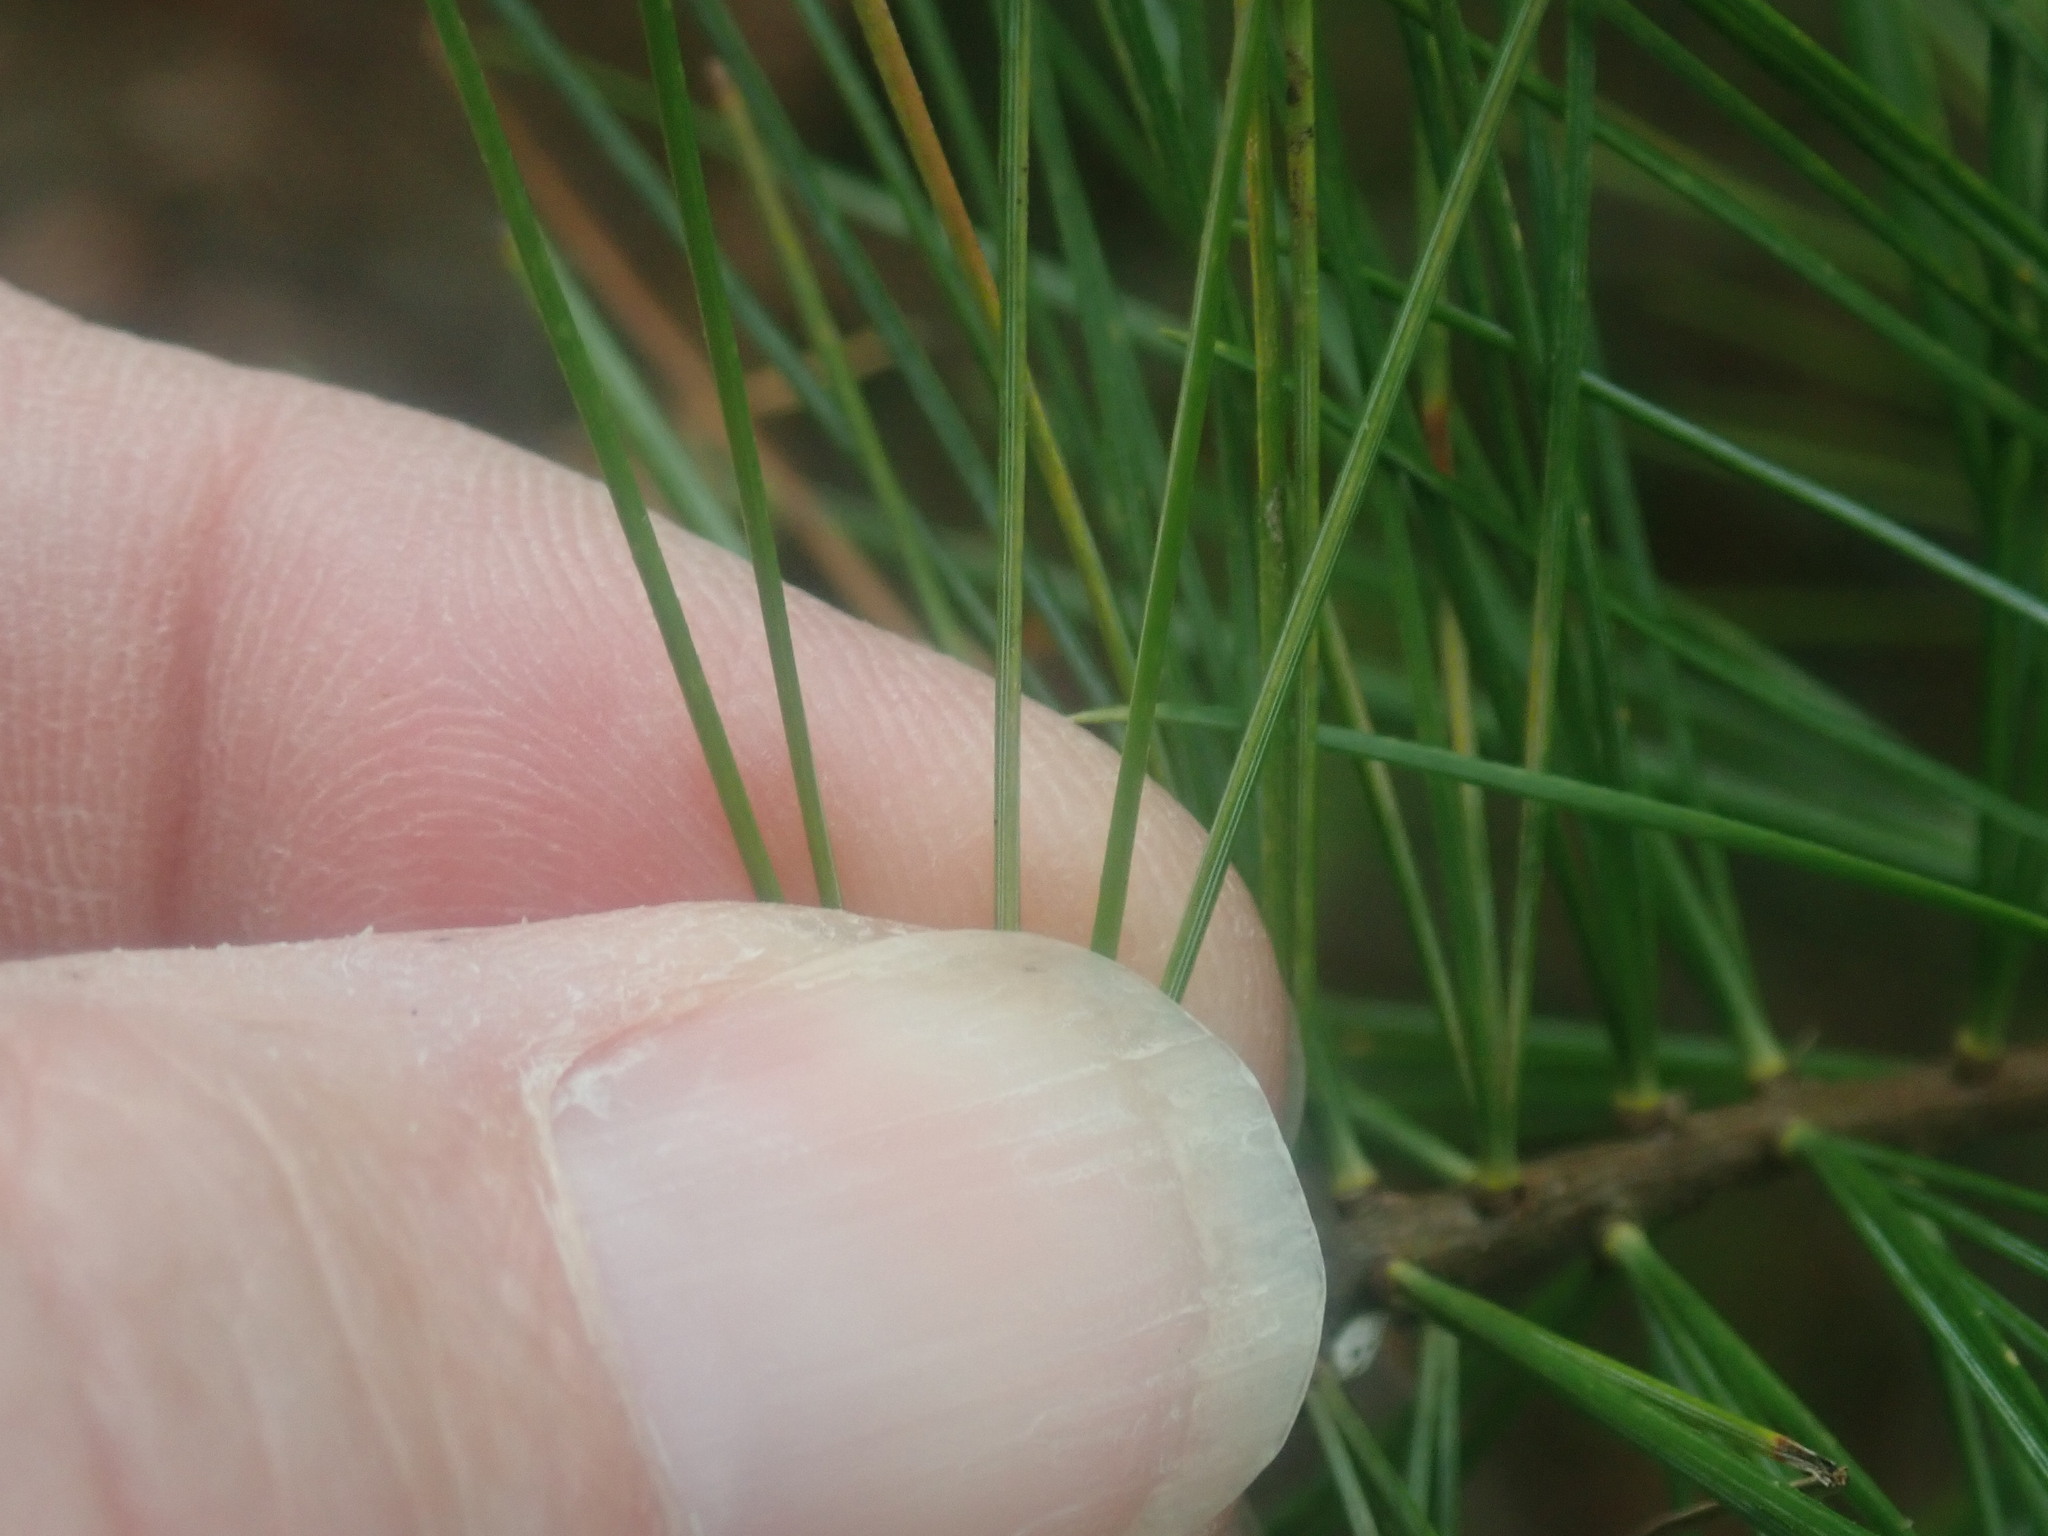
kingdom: Plantae
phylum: Tracheophyta
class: Pinopsida
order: Pinales
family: Pinaceae
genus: Pinus
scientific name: Pinus strobus
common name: Weymouth pine
